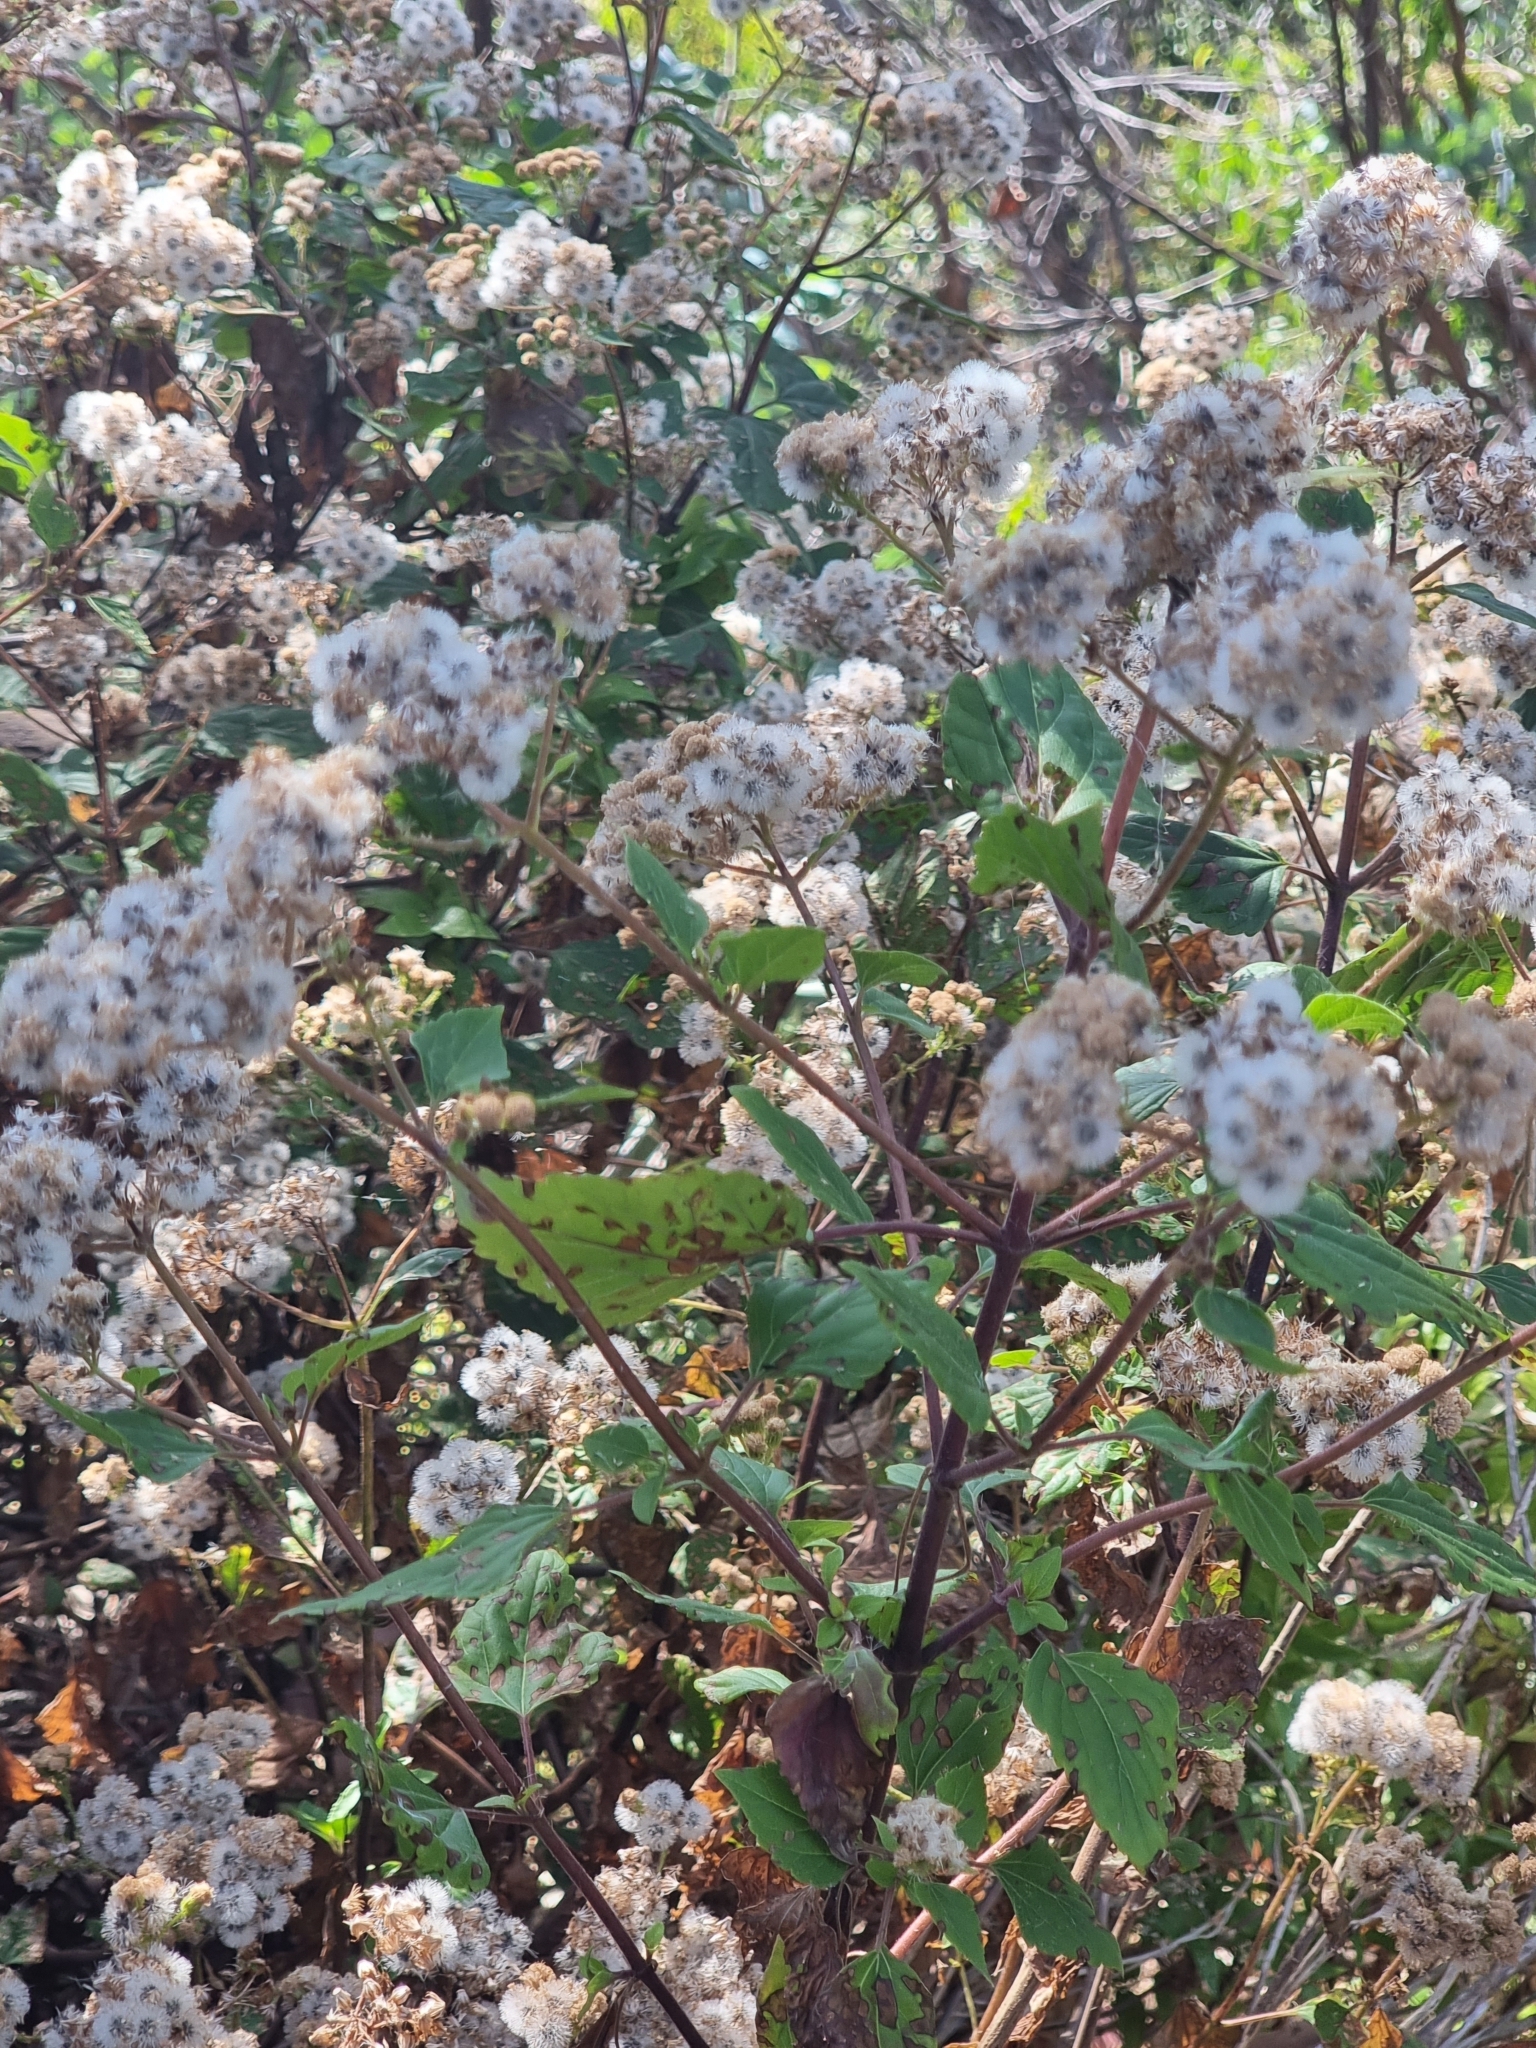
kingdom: Plantae
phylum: Tracheophyta
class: Magnoliopsida
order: Asterales
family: Asteraceae
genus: Ageratina
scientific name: Ageratina adenophora
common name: Sticky snakeroot
